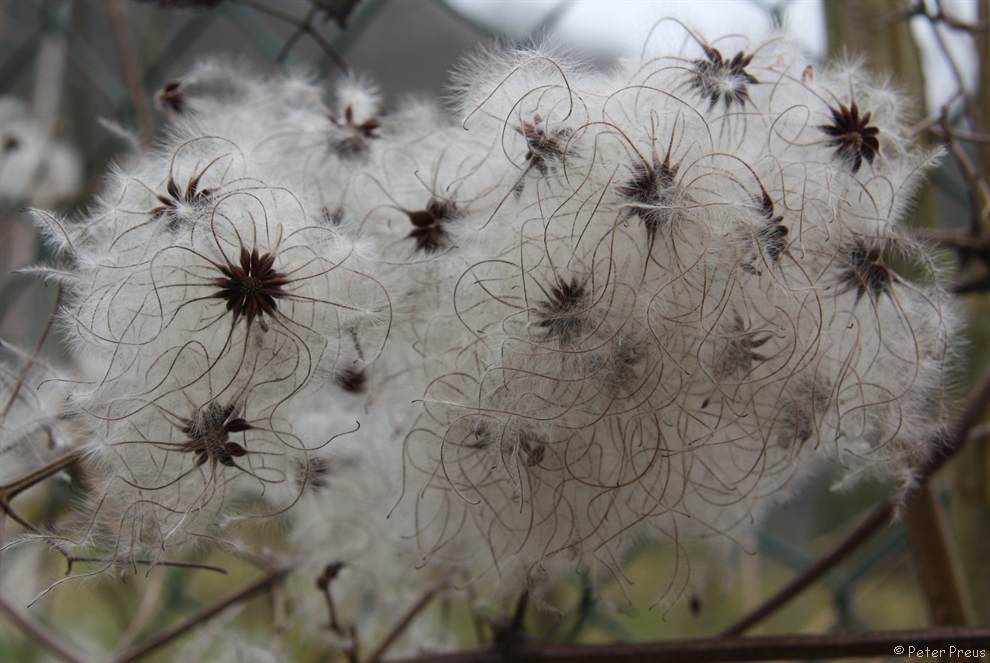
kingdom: Plantae
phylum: Tracheophyta
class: Magnoliopsida
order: Ranunculales
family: Ranunculaceae
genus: Clematis
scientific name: Clematis vitalba
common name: Evergreen clematis
